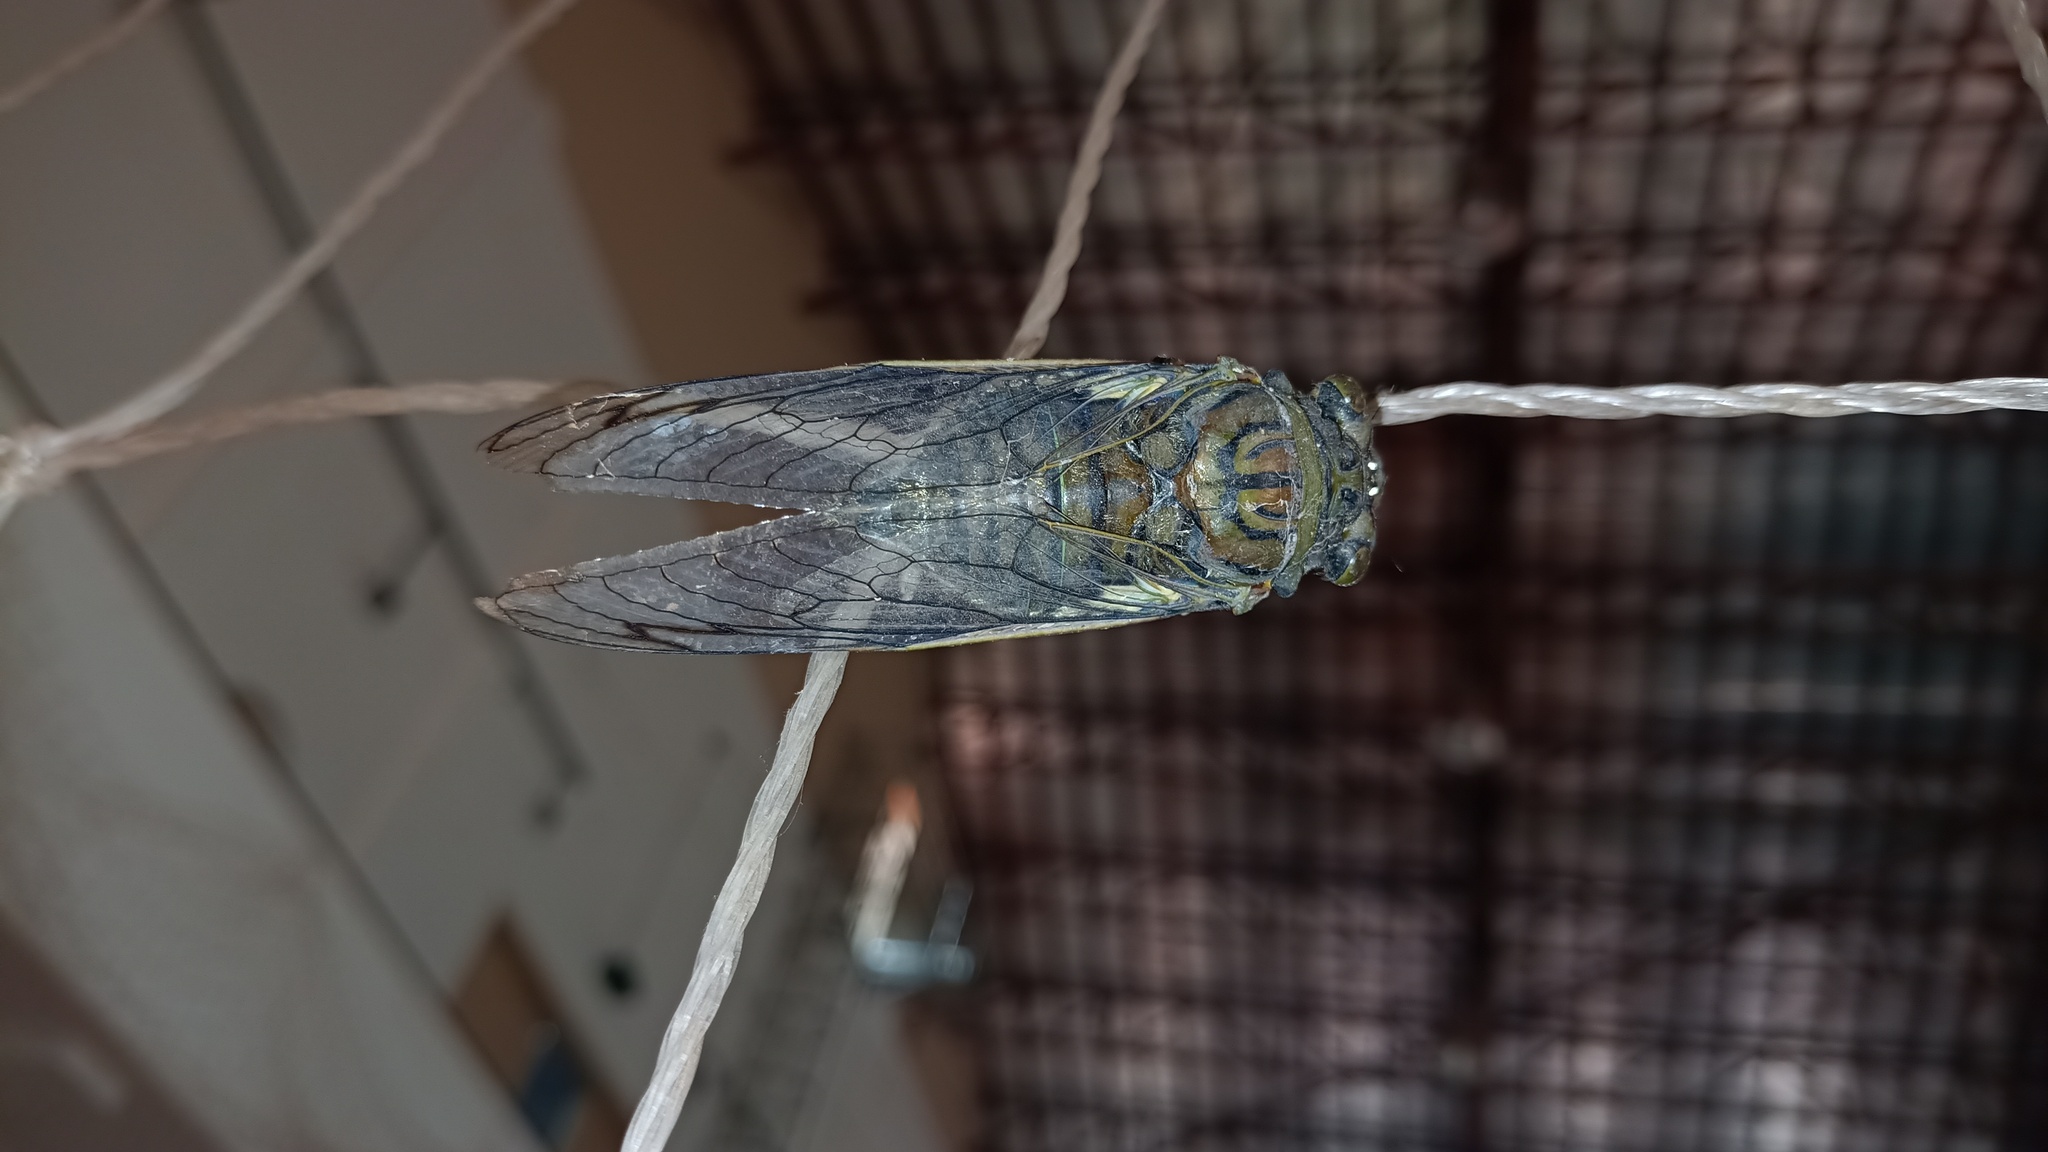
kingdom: Animalia
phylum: Arthropoda
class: Insecta
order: Hemiptera
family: Cicadidae
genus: Quesada
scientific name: Quesada gigas
